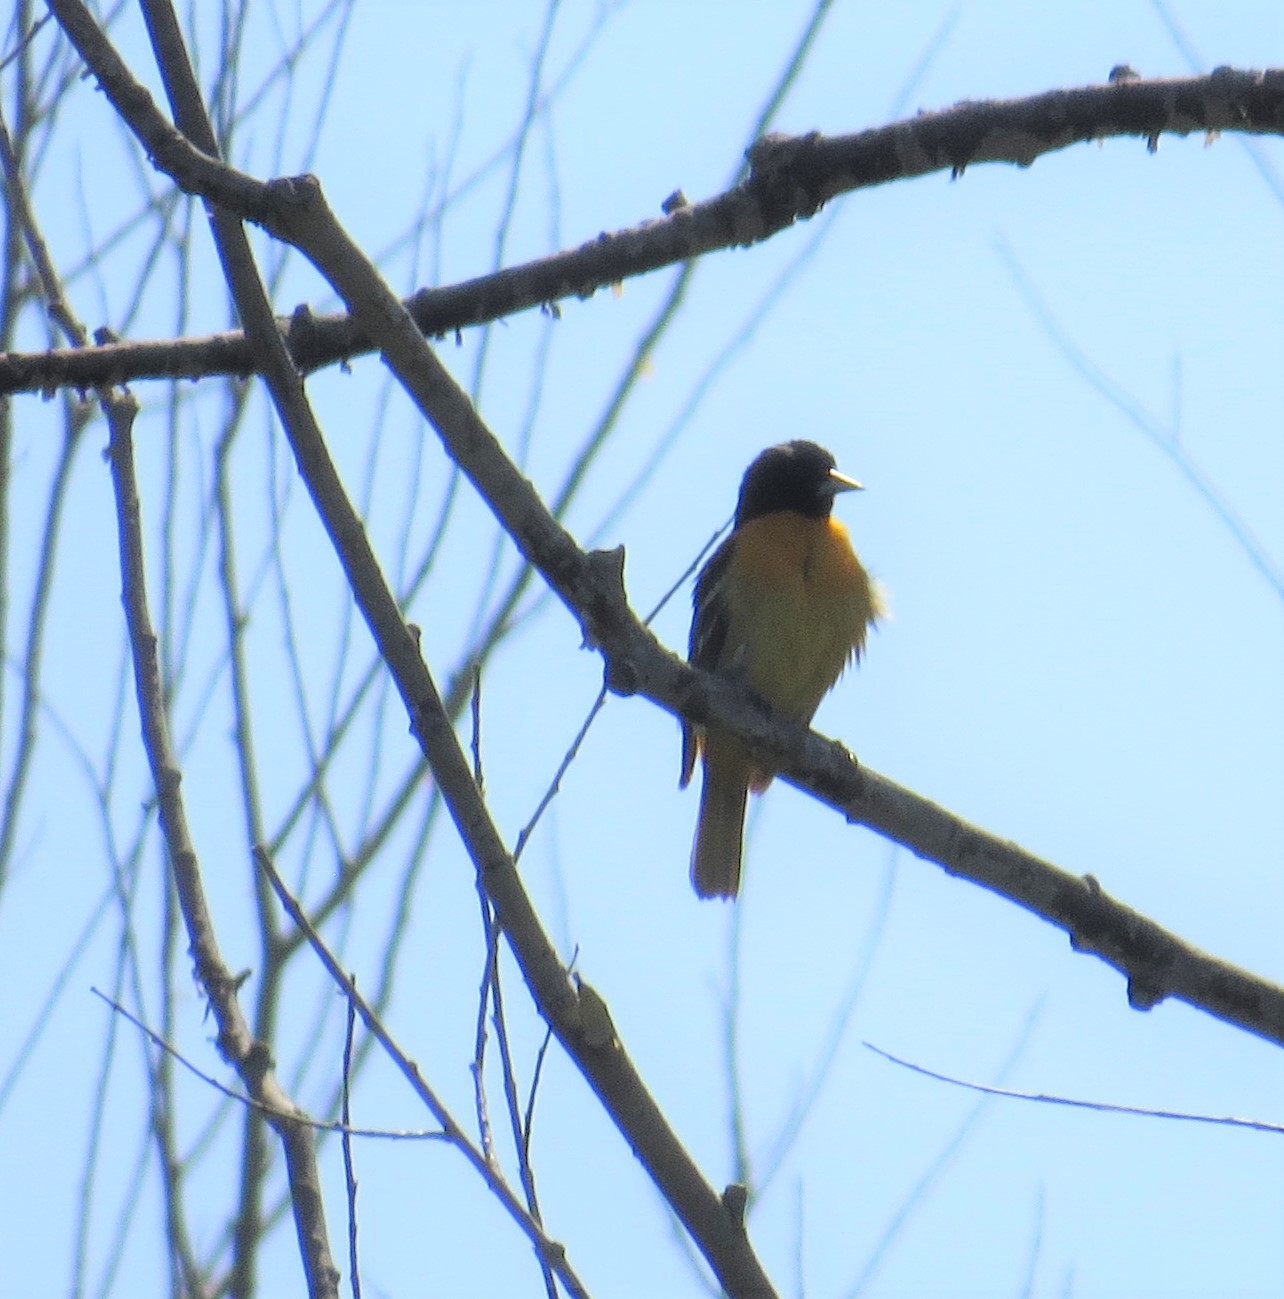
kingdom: Animalia
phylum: Chordata
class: Aves
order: Passeriformes
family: Icteridae
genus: Icterus
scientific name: Icterus galbula
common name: Baltimore oriole
